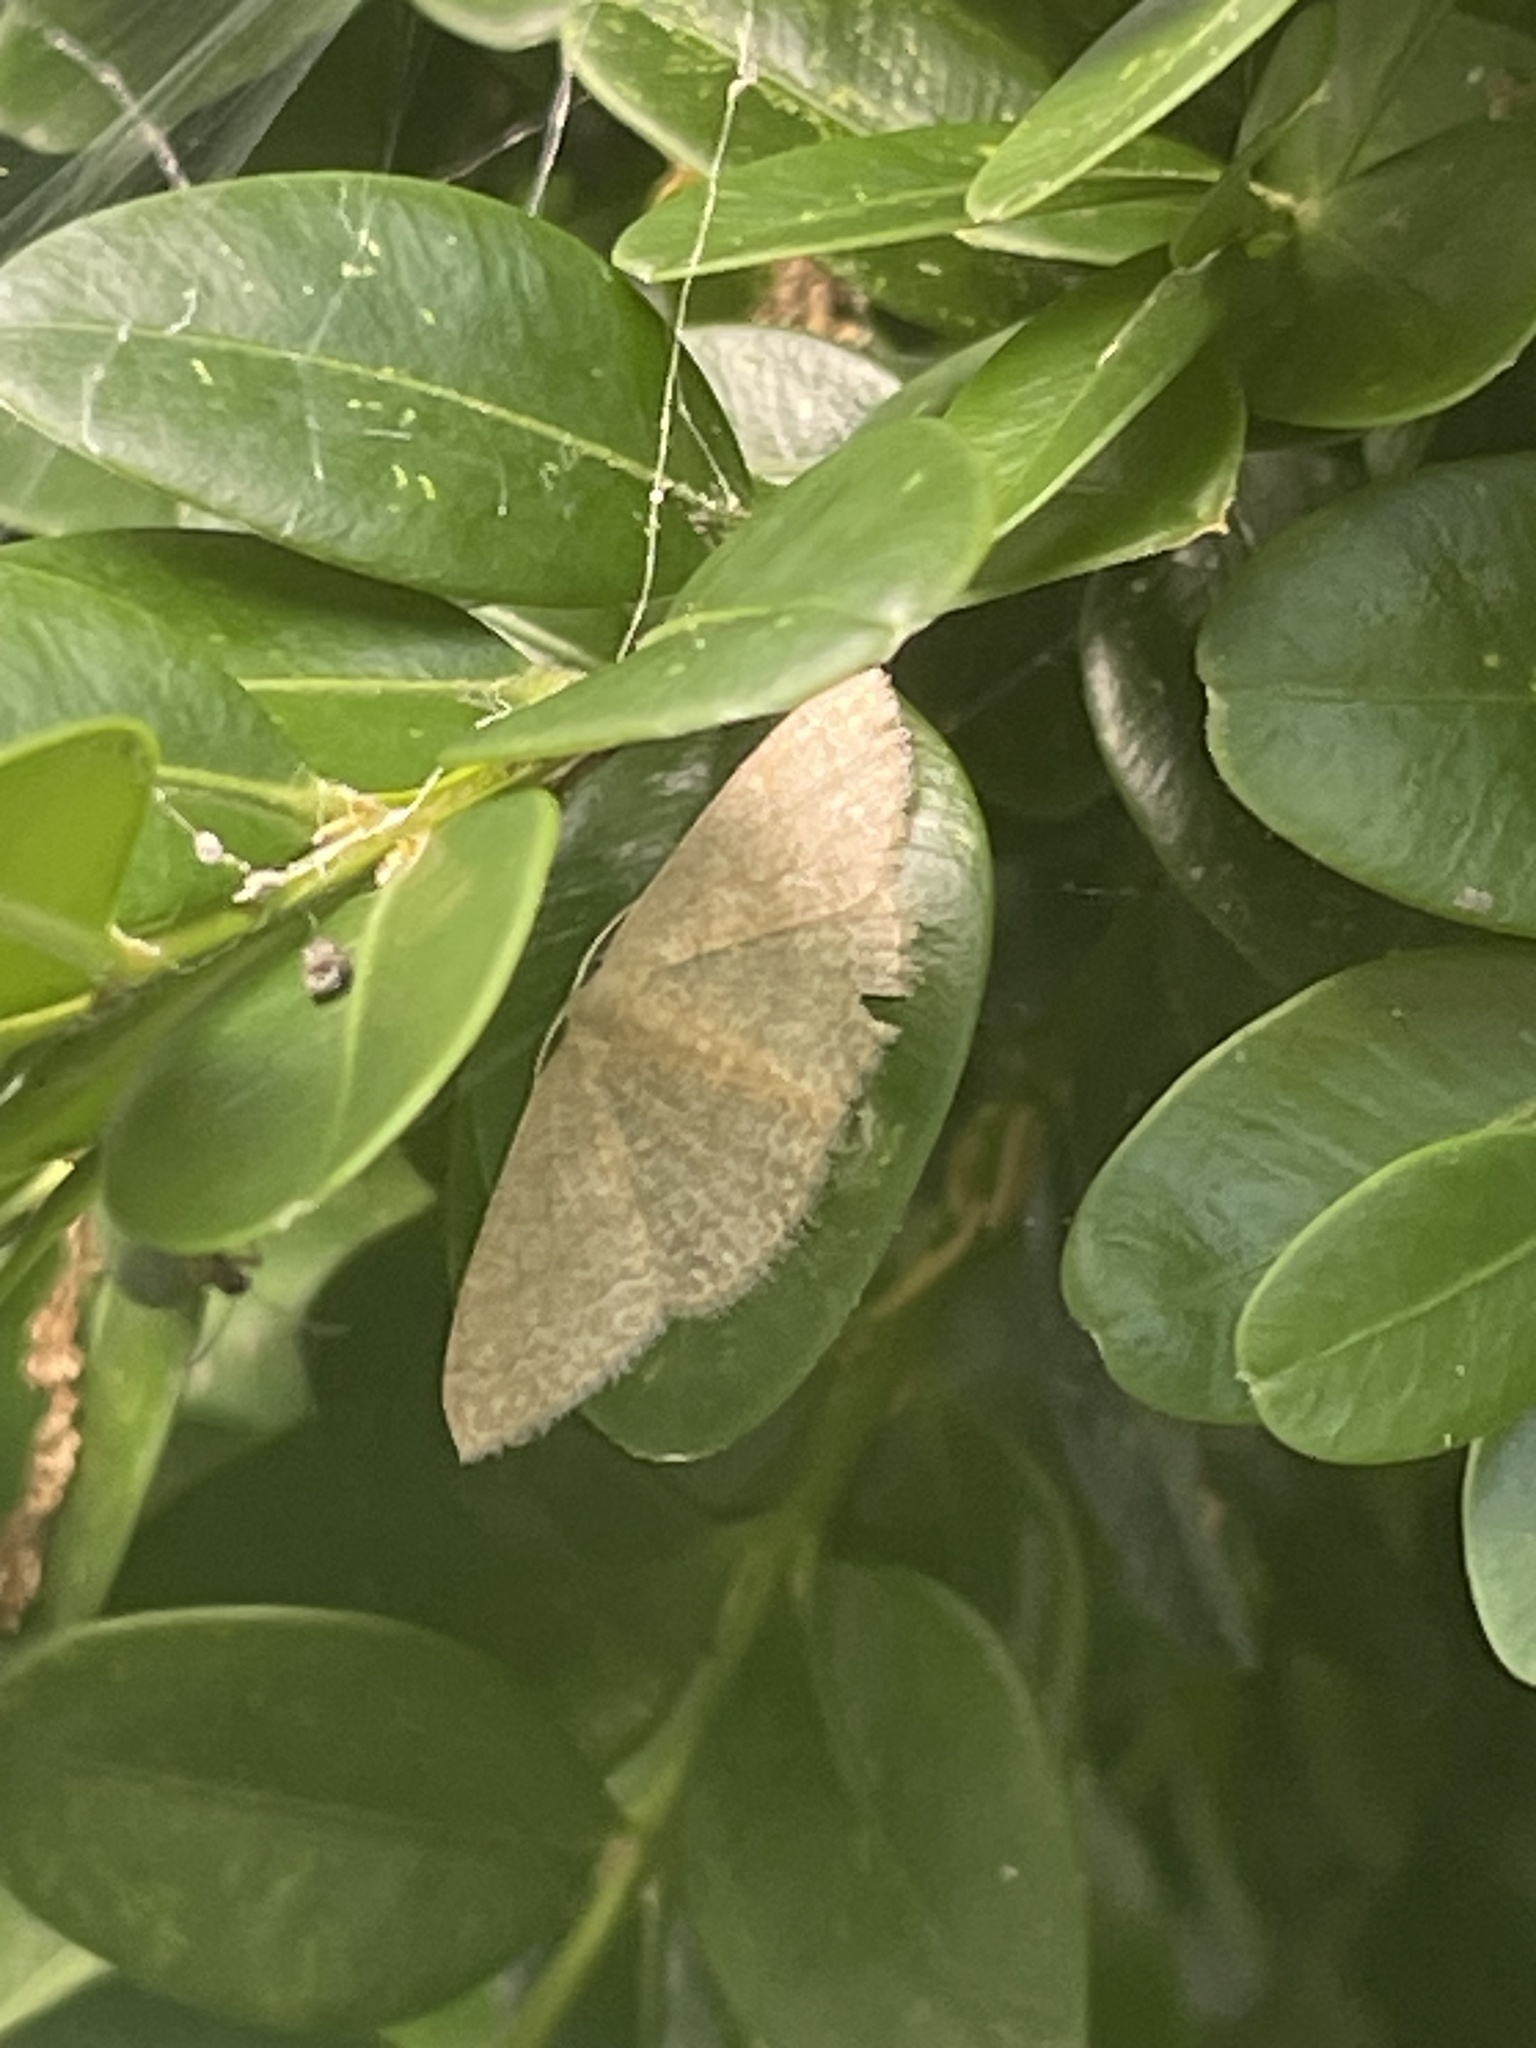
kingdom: Animalia
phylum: Arthropoda
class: Insecta
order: Lepidoptera
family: Geometridae
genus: Pleuroprucha
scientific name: Pleuroprucha insulsaria
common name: Common tan wave
